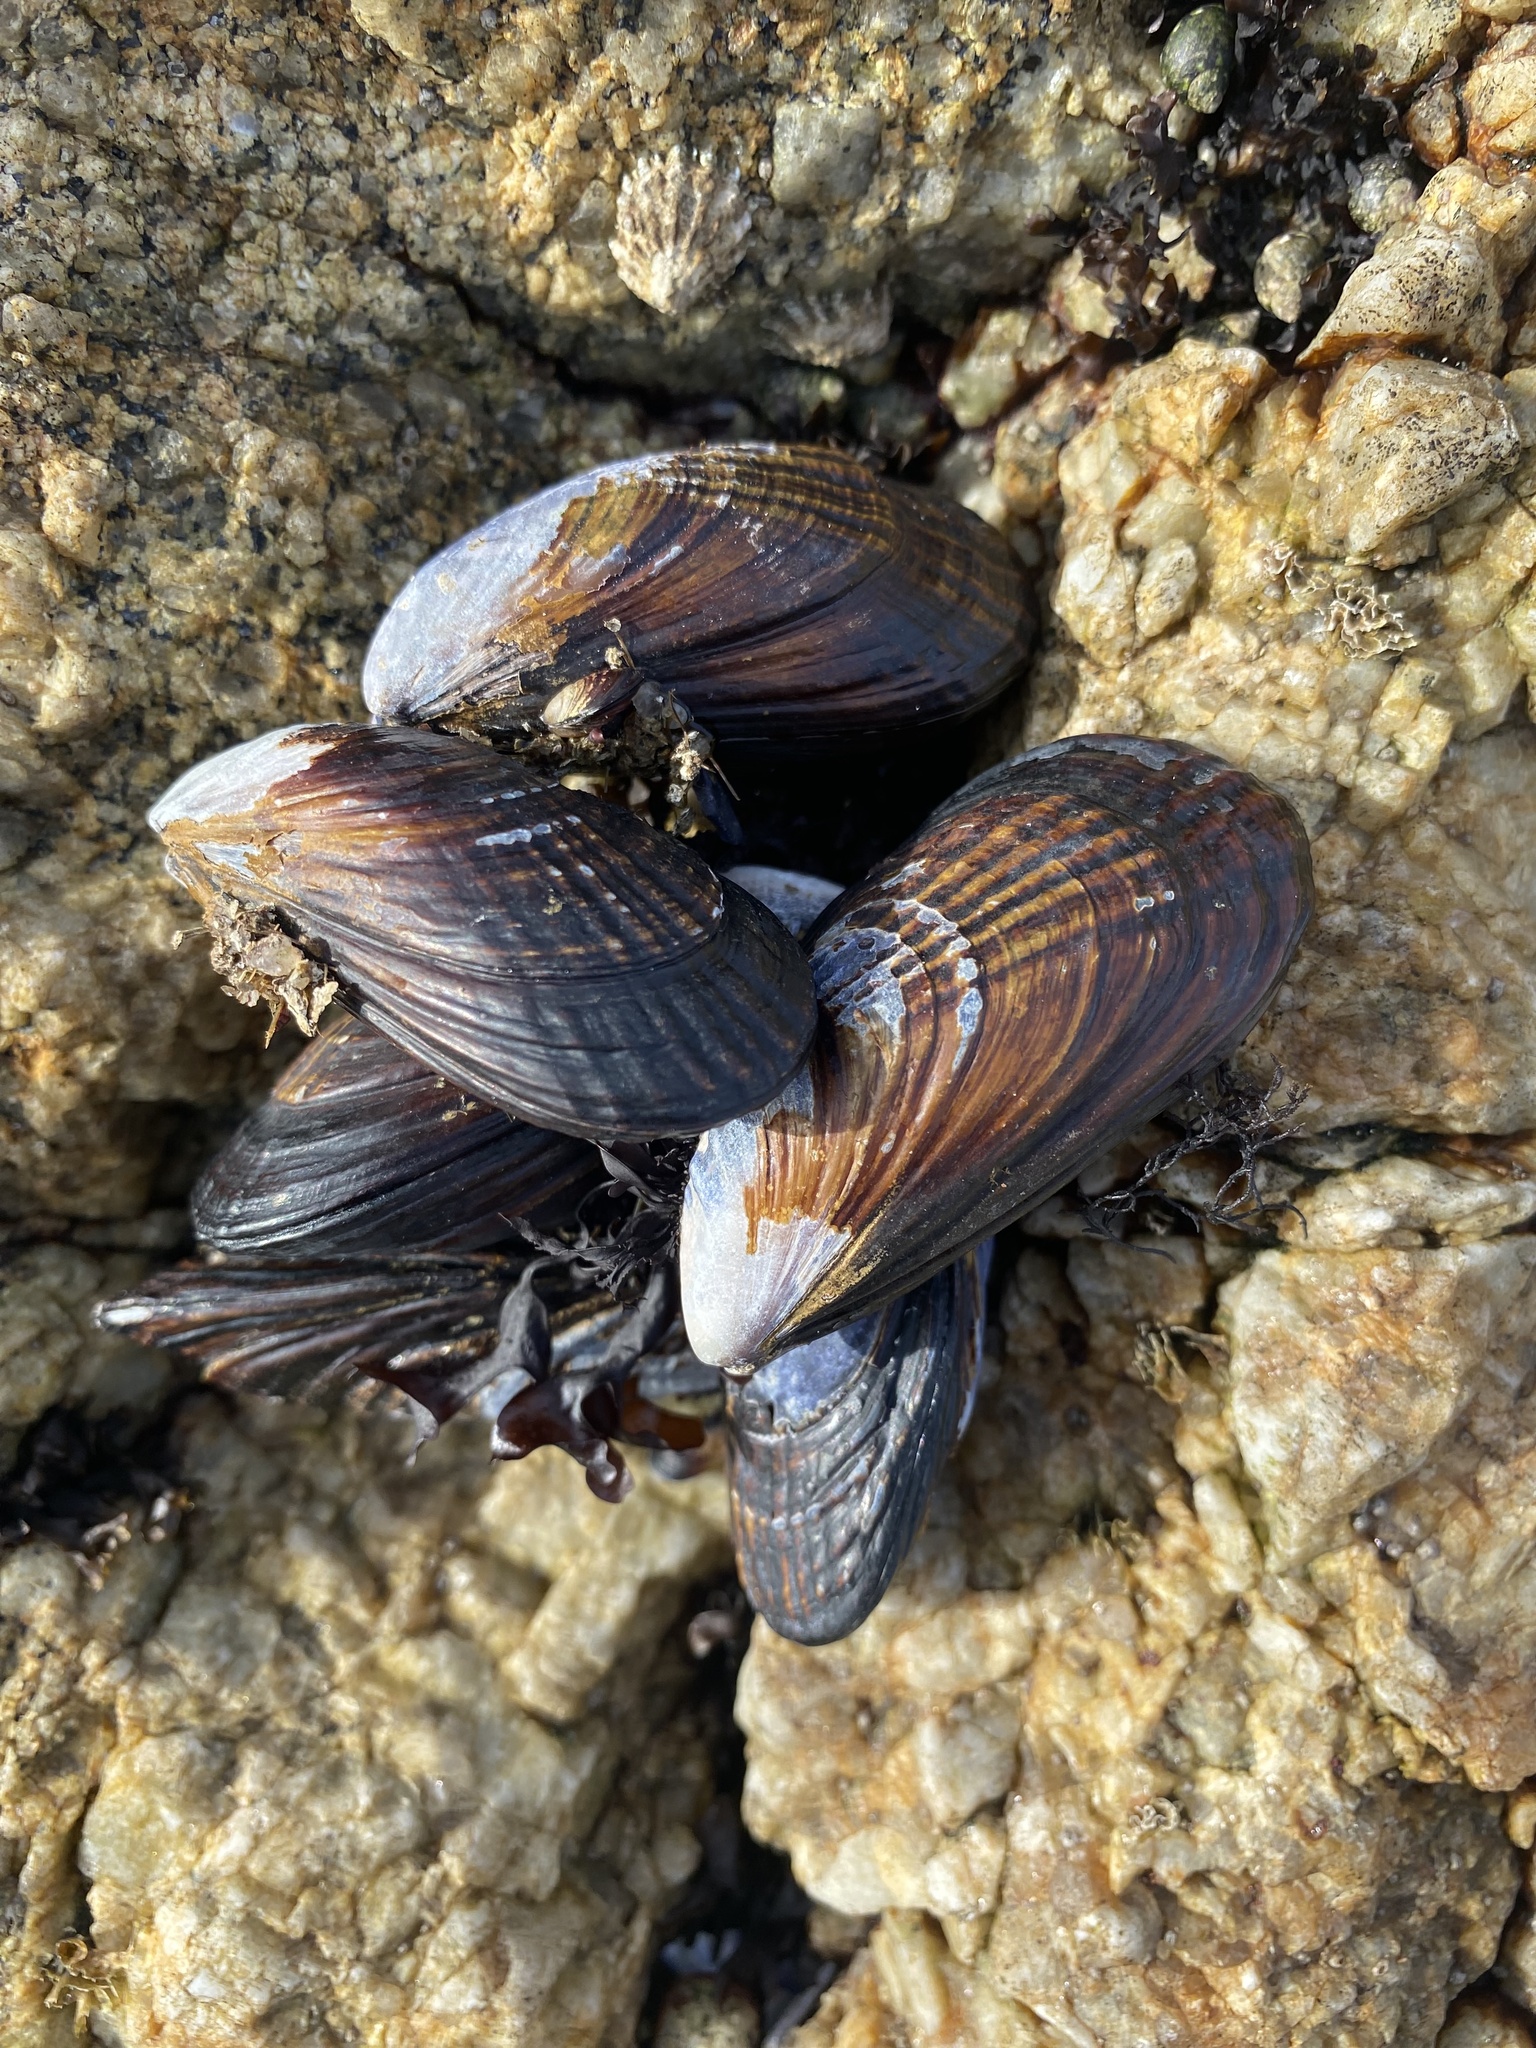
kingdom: Animalia
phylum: Mollusca
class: Bivalvia
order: Mytilida
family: Mytilidae
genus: Mytilus
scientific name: Mytilus californianus
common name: California mussel
